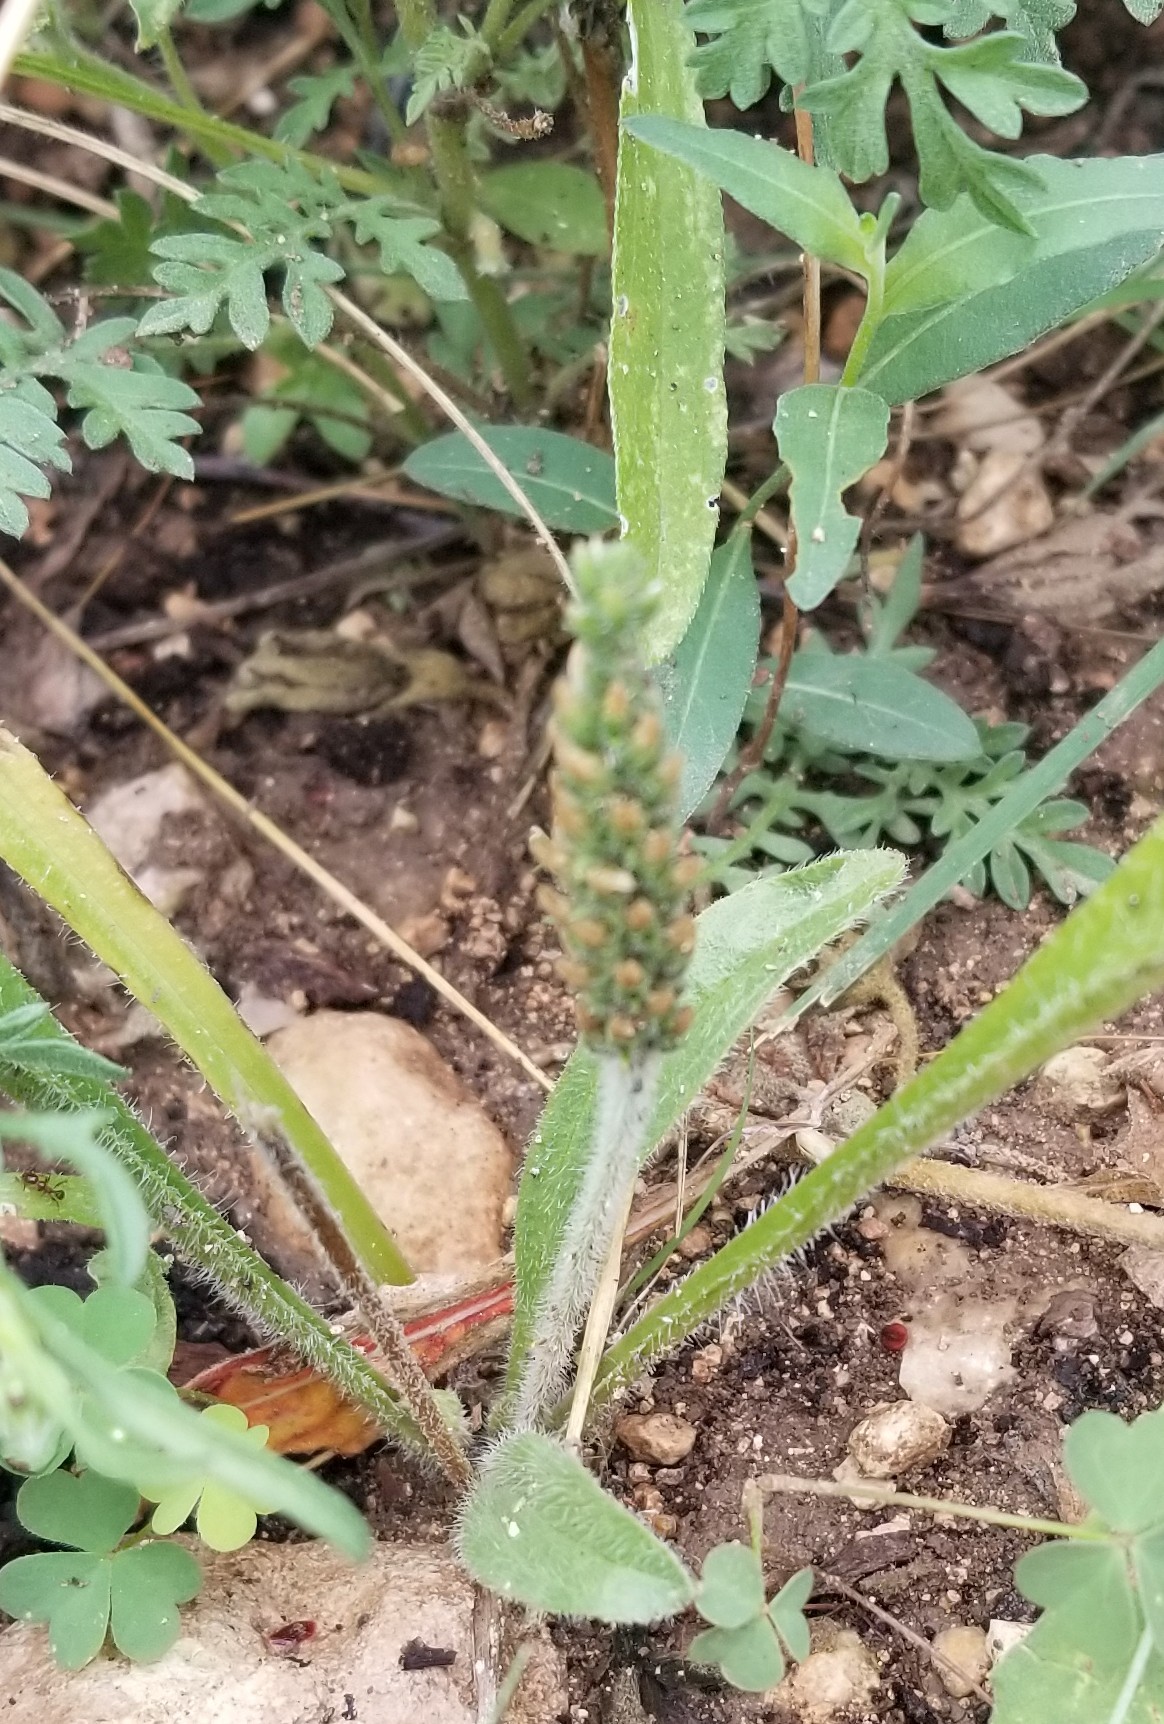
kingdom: Plantae
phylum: Tracheophyta
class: Magnoliopsida
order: Lamiales
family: Plantaginaceae
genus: Plantago
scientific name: Plantago rhodosperma
